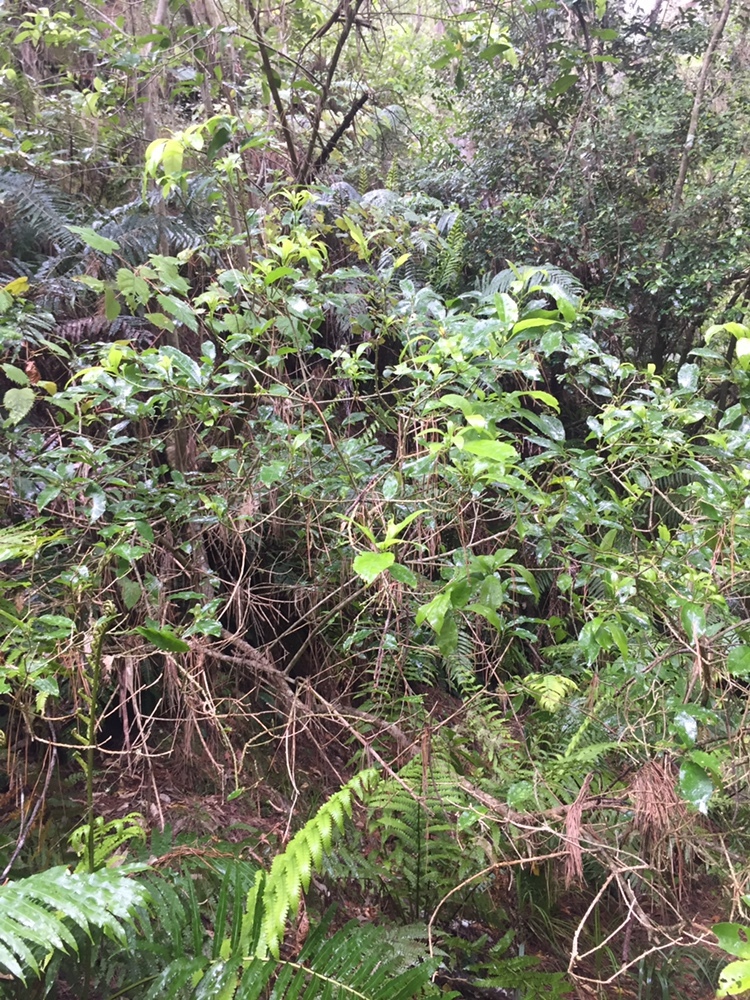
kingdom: Plantae
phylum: Tracheophyta
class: Magnoliopsida
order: Malpighiales
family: Violaceae
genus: Melicytus
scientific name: Melicytus ramiflorus
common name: Mahoe
